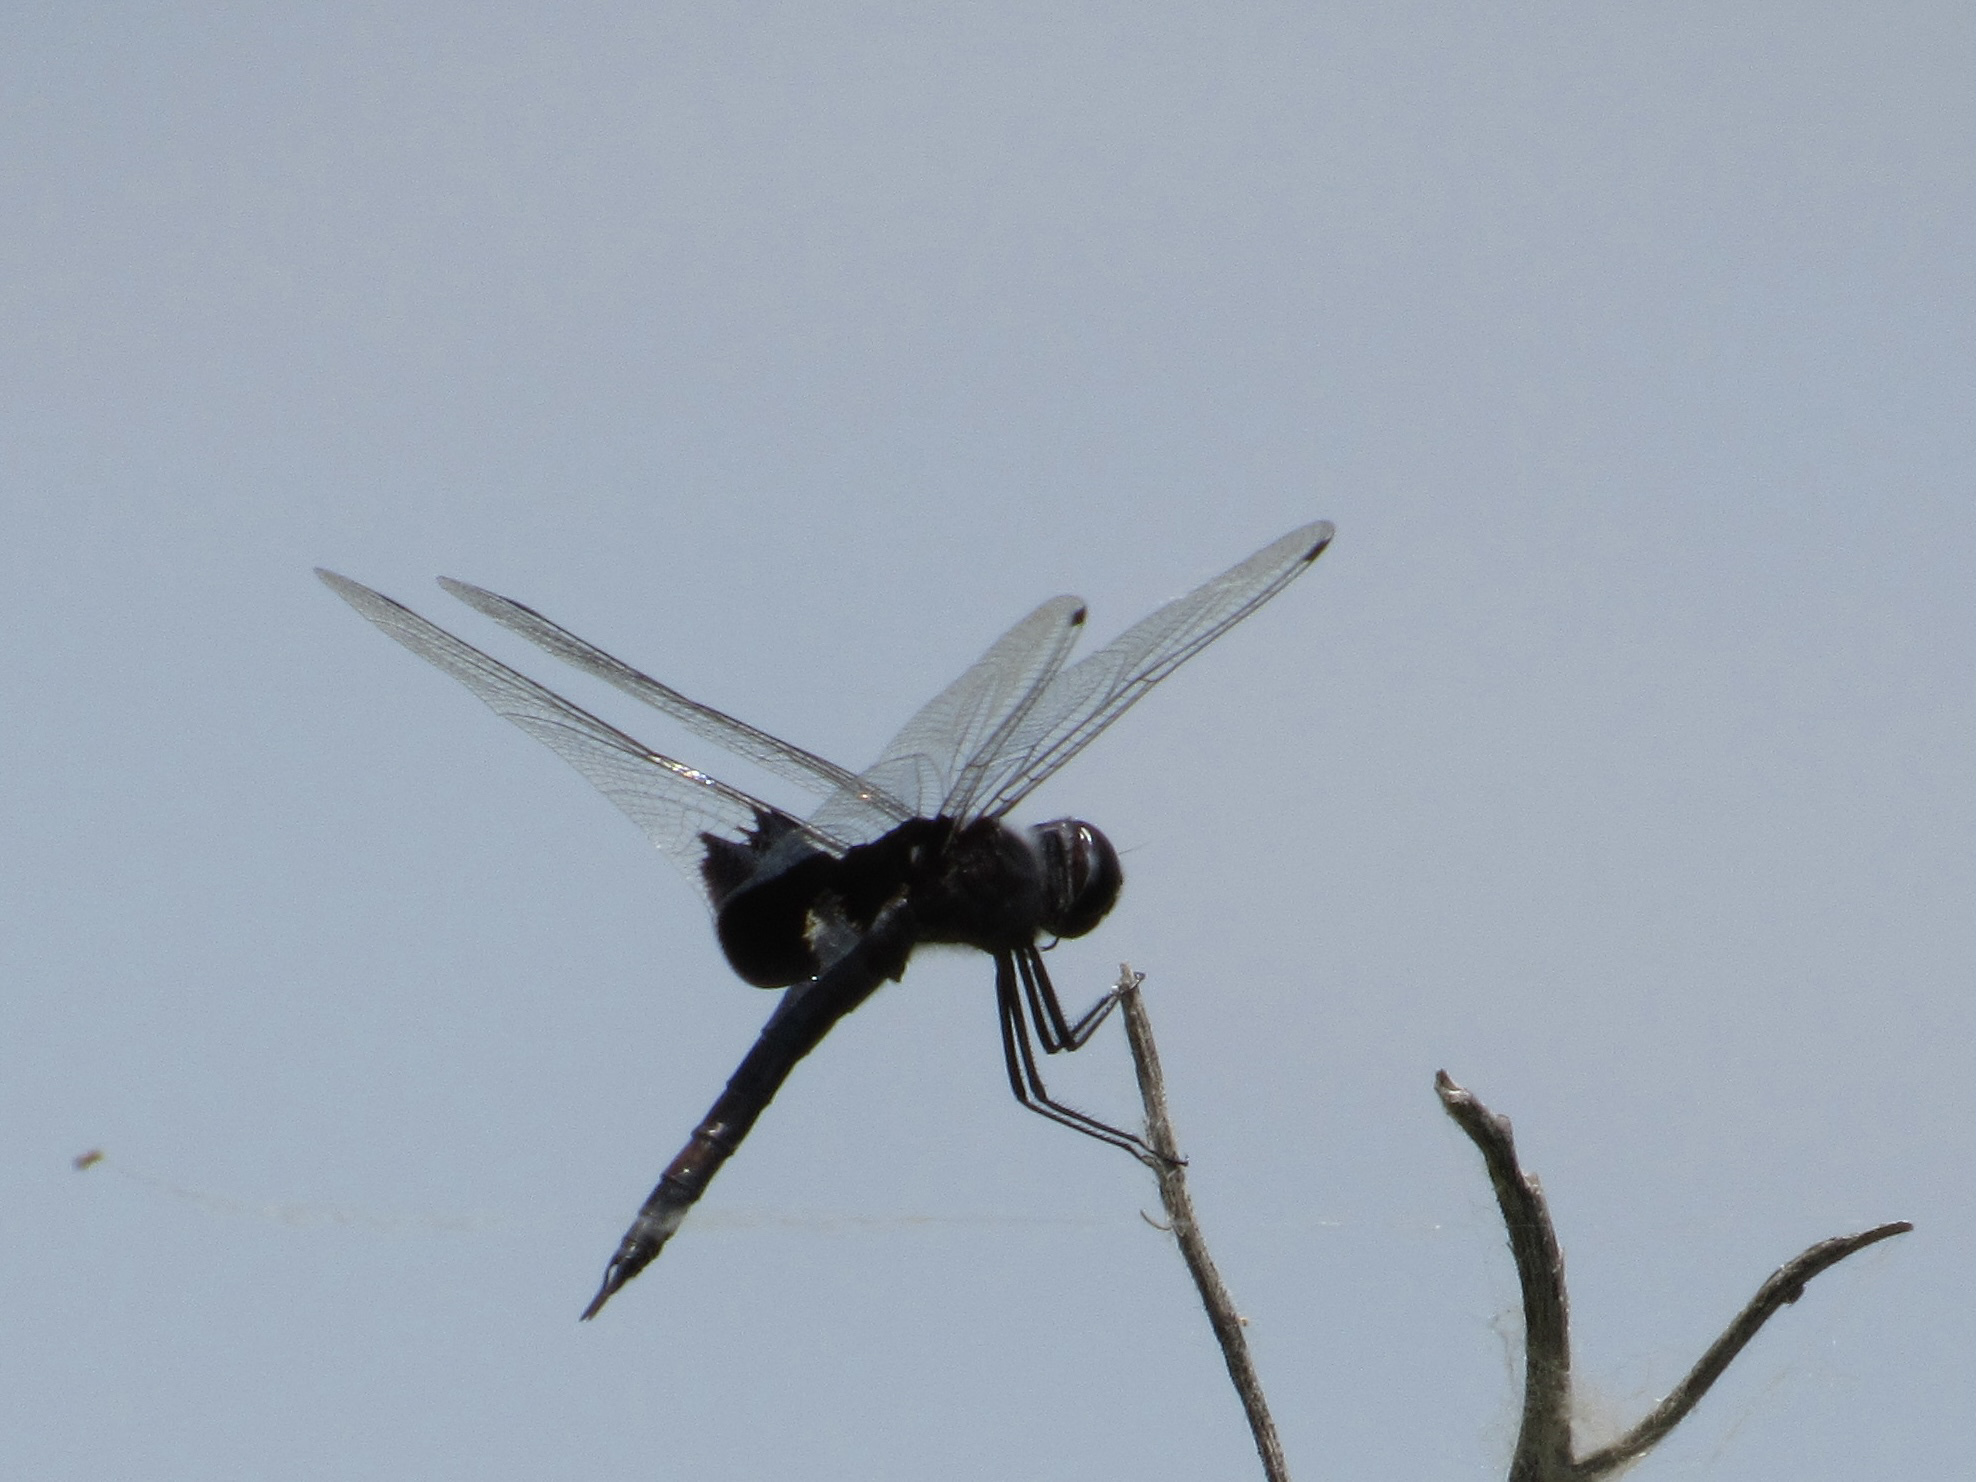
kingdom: Animalia
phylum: Arthropoda
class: Insecta
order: Odonata
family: Libellulidae
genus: Tramea
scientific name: Tramea lacerata
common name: Black saddlebags
